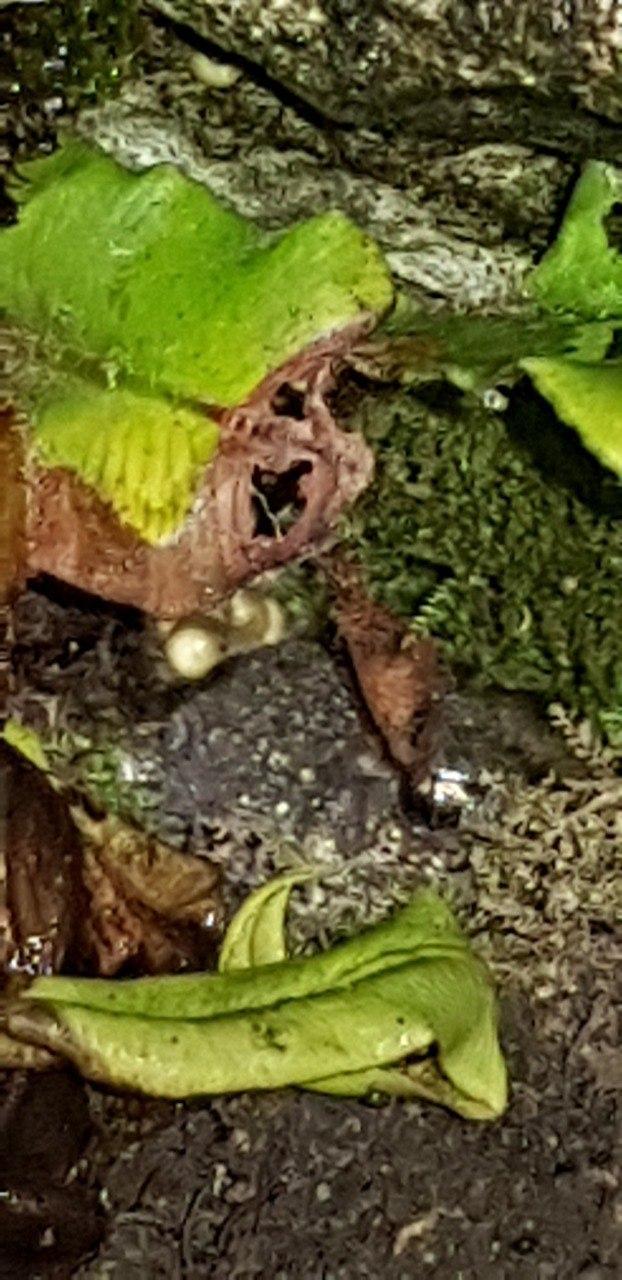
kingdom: Animalia
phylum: Chordata
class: Amphibia
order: Anura
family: Alytidae
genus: Alytes
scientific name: Alytes obstetricans
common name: Midwife toad
